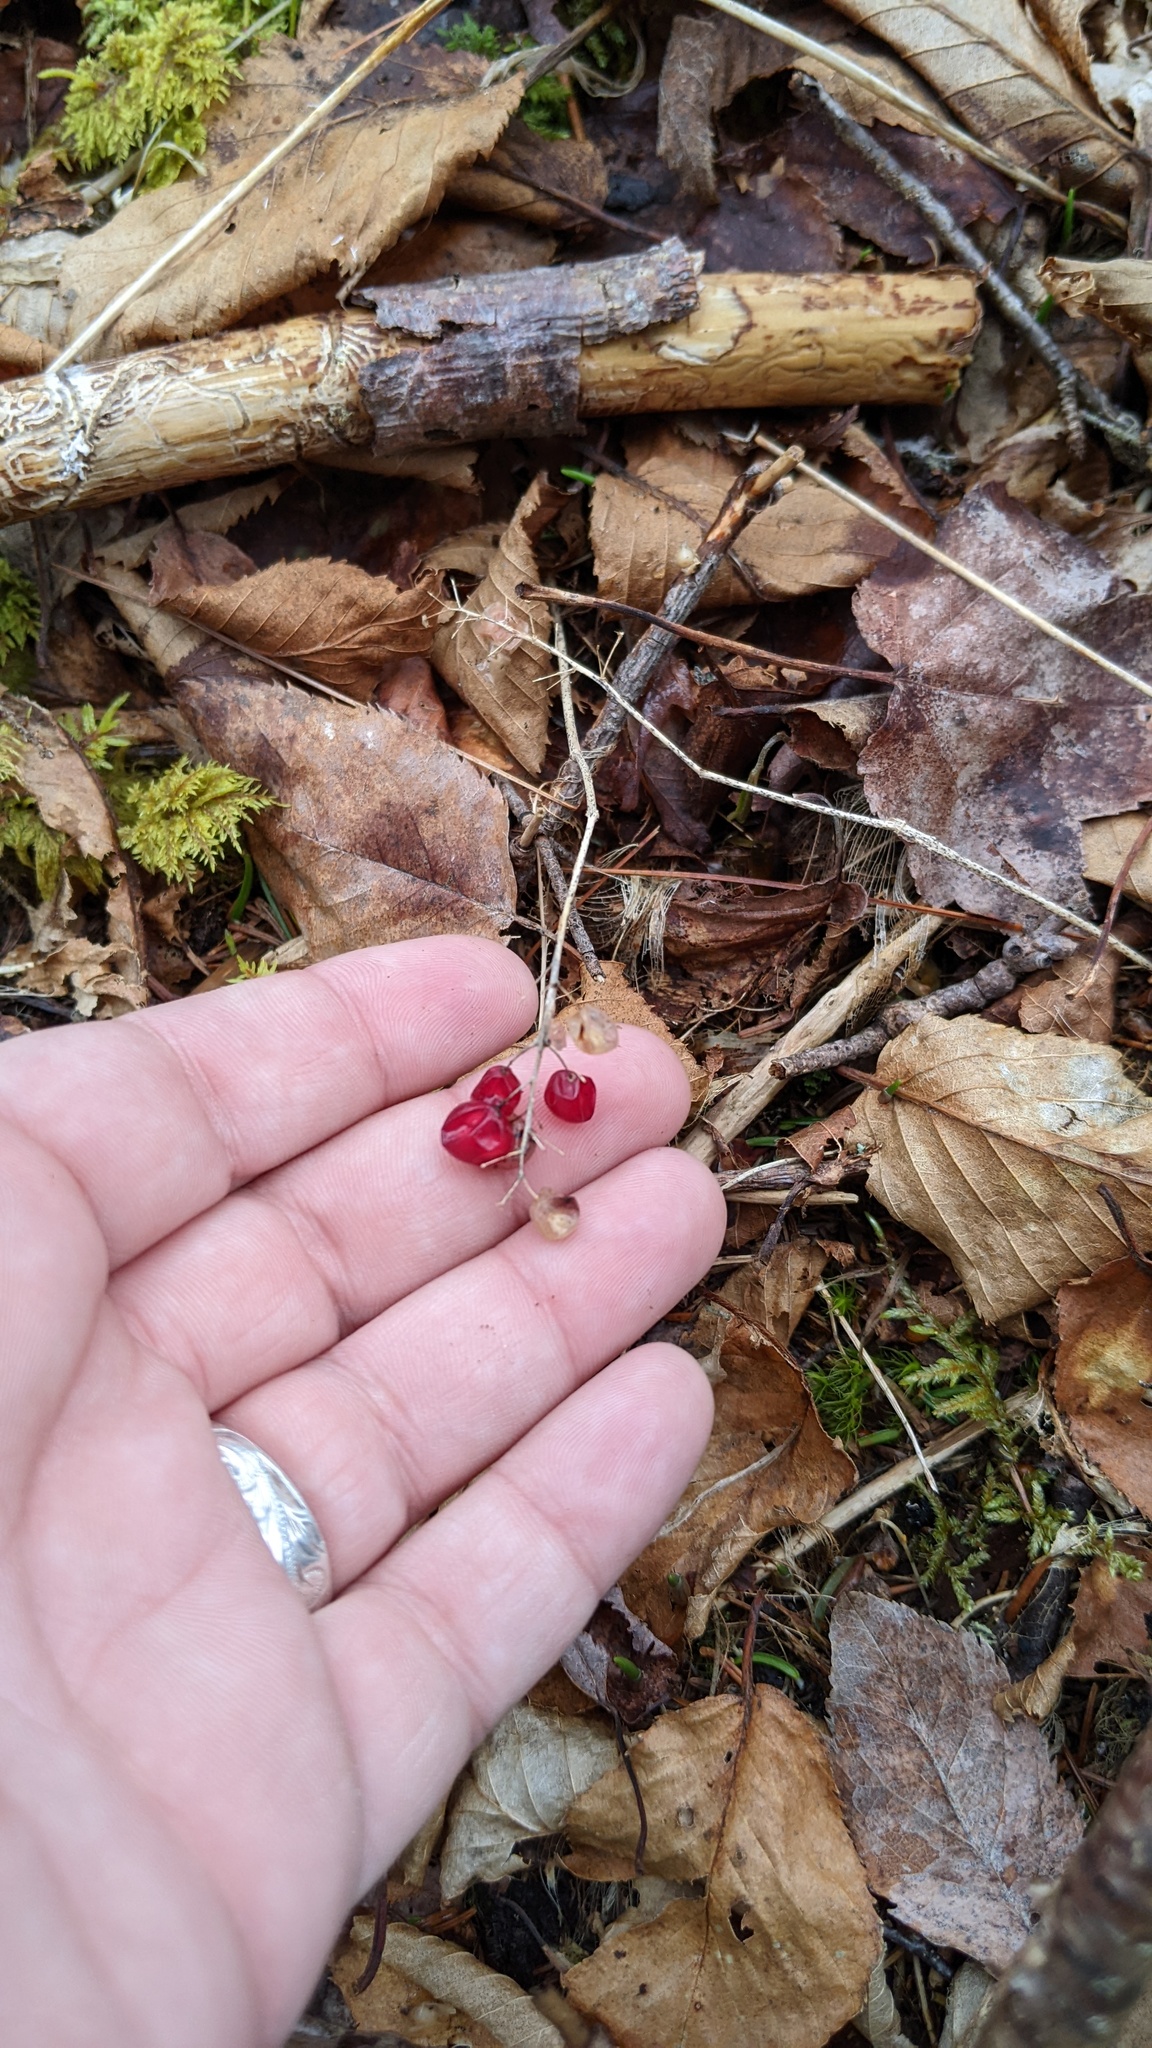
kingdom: Plantae
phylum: Tracheophyta
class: Liliopsida
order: Asparagales
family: Asparagaceae
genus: Maianthemum
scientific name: Maianthemum canadense
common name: False lily-of-the-valley
